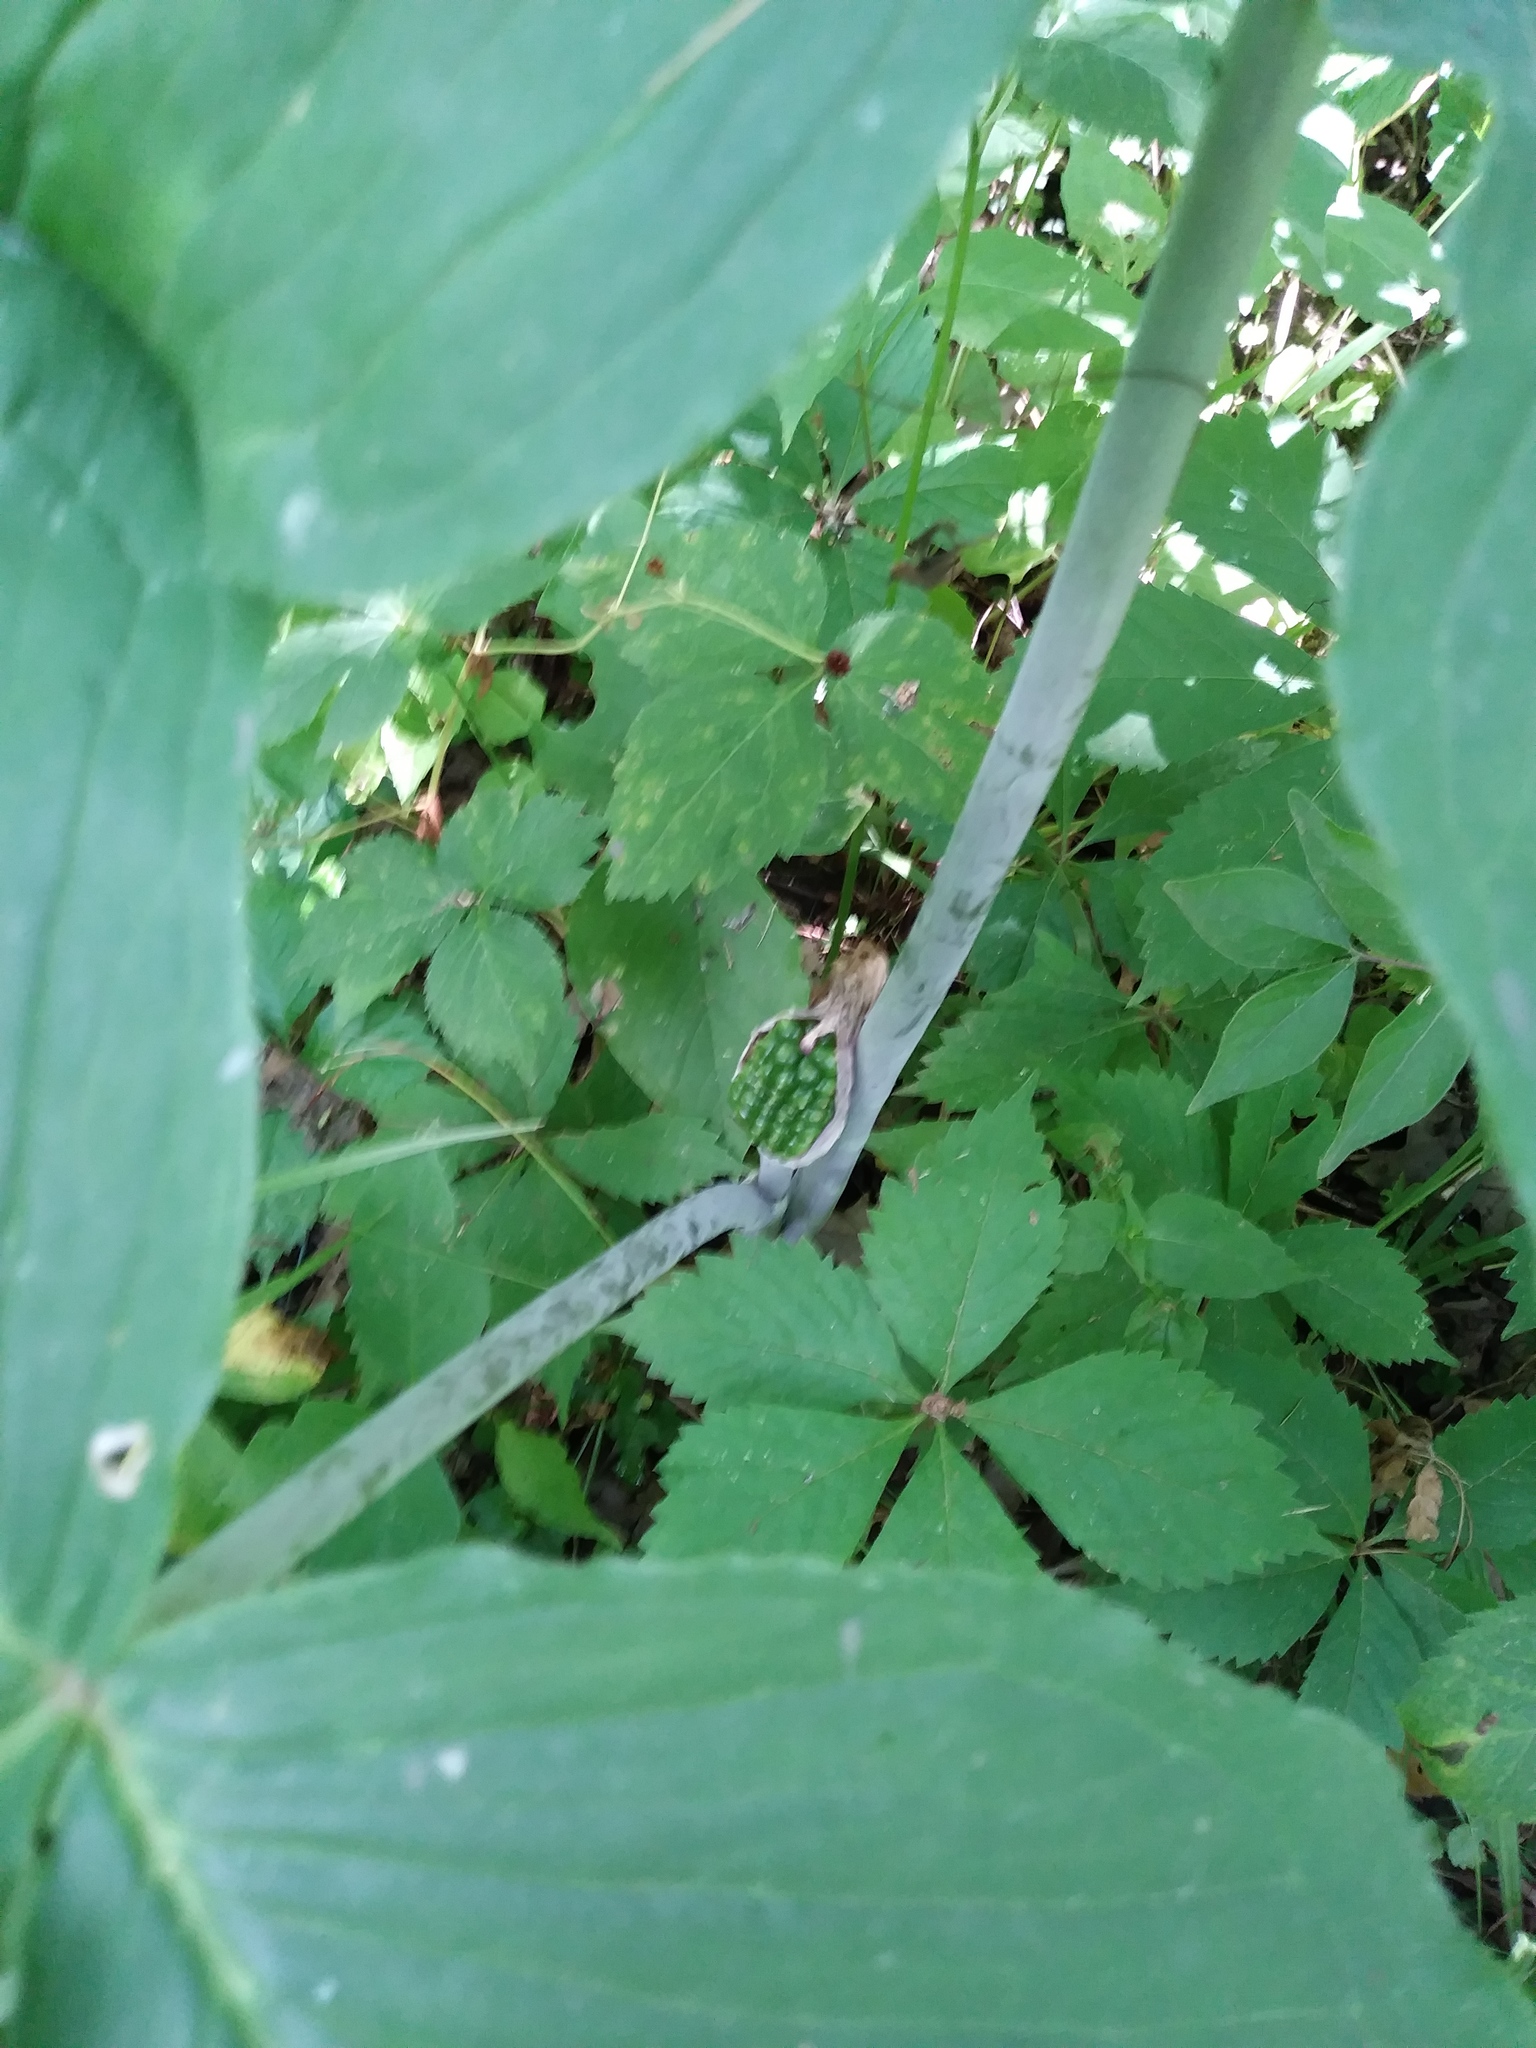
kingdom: Plantae
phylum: Tracheophyta
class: Liliopsida
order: Alismatales
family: Araceae
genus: Arisaema
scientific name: Arisaema triphyllum
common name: Jack-in-the-pulpit
